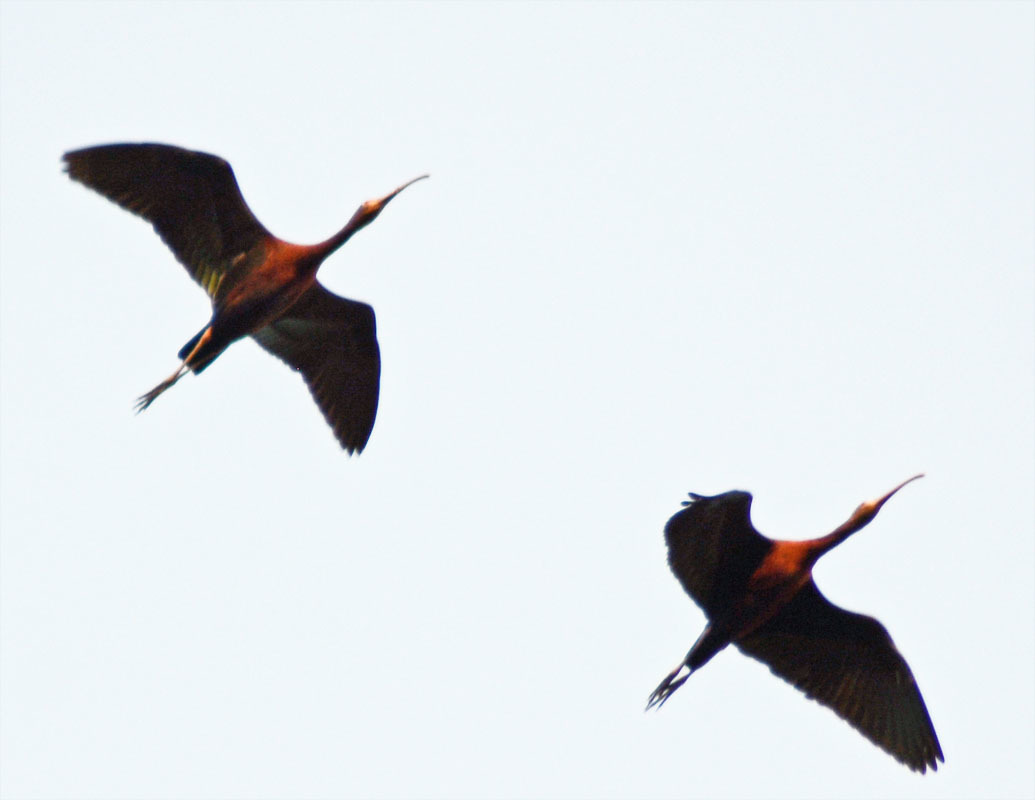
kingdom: Animalia
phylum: Chordata
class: Aves
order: Pelecaniformes
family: Threskiornithidae
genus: Plegadis
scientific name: Plegadis chihi
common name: White-faced ibis
